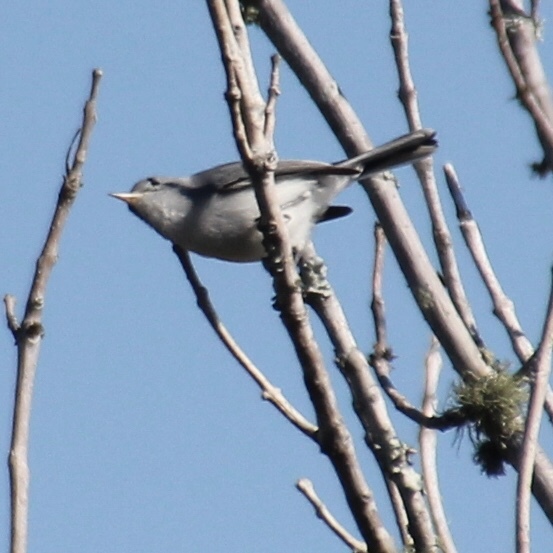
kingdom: Animalia
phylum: Chordata
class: Aves
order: Passeriformes
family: Polioptilidae
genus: Polioptila
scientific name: Polioptila caerulea
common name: Blue-gray gnatcatcher
